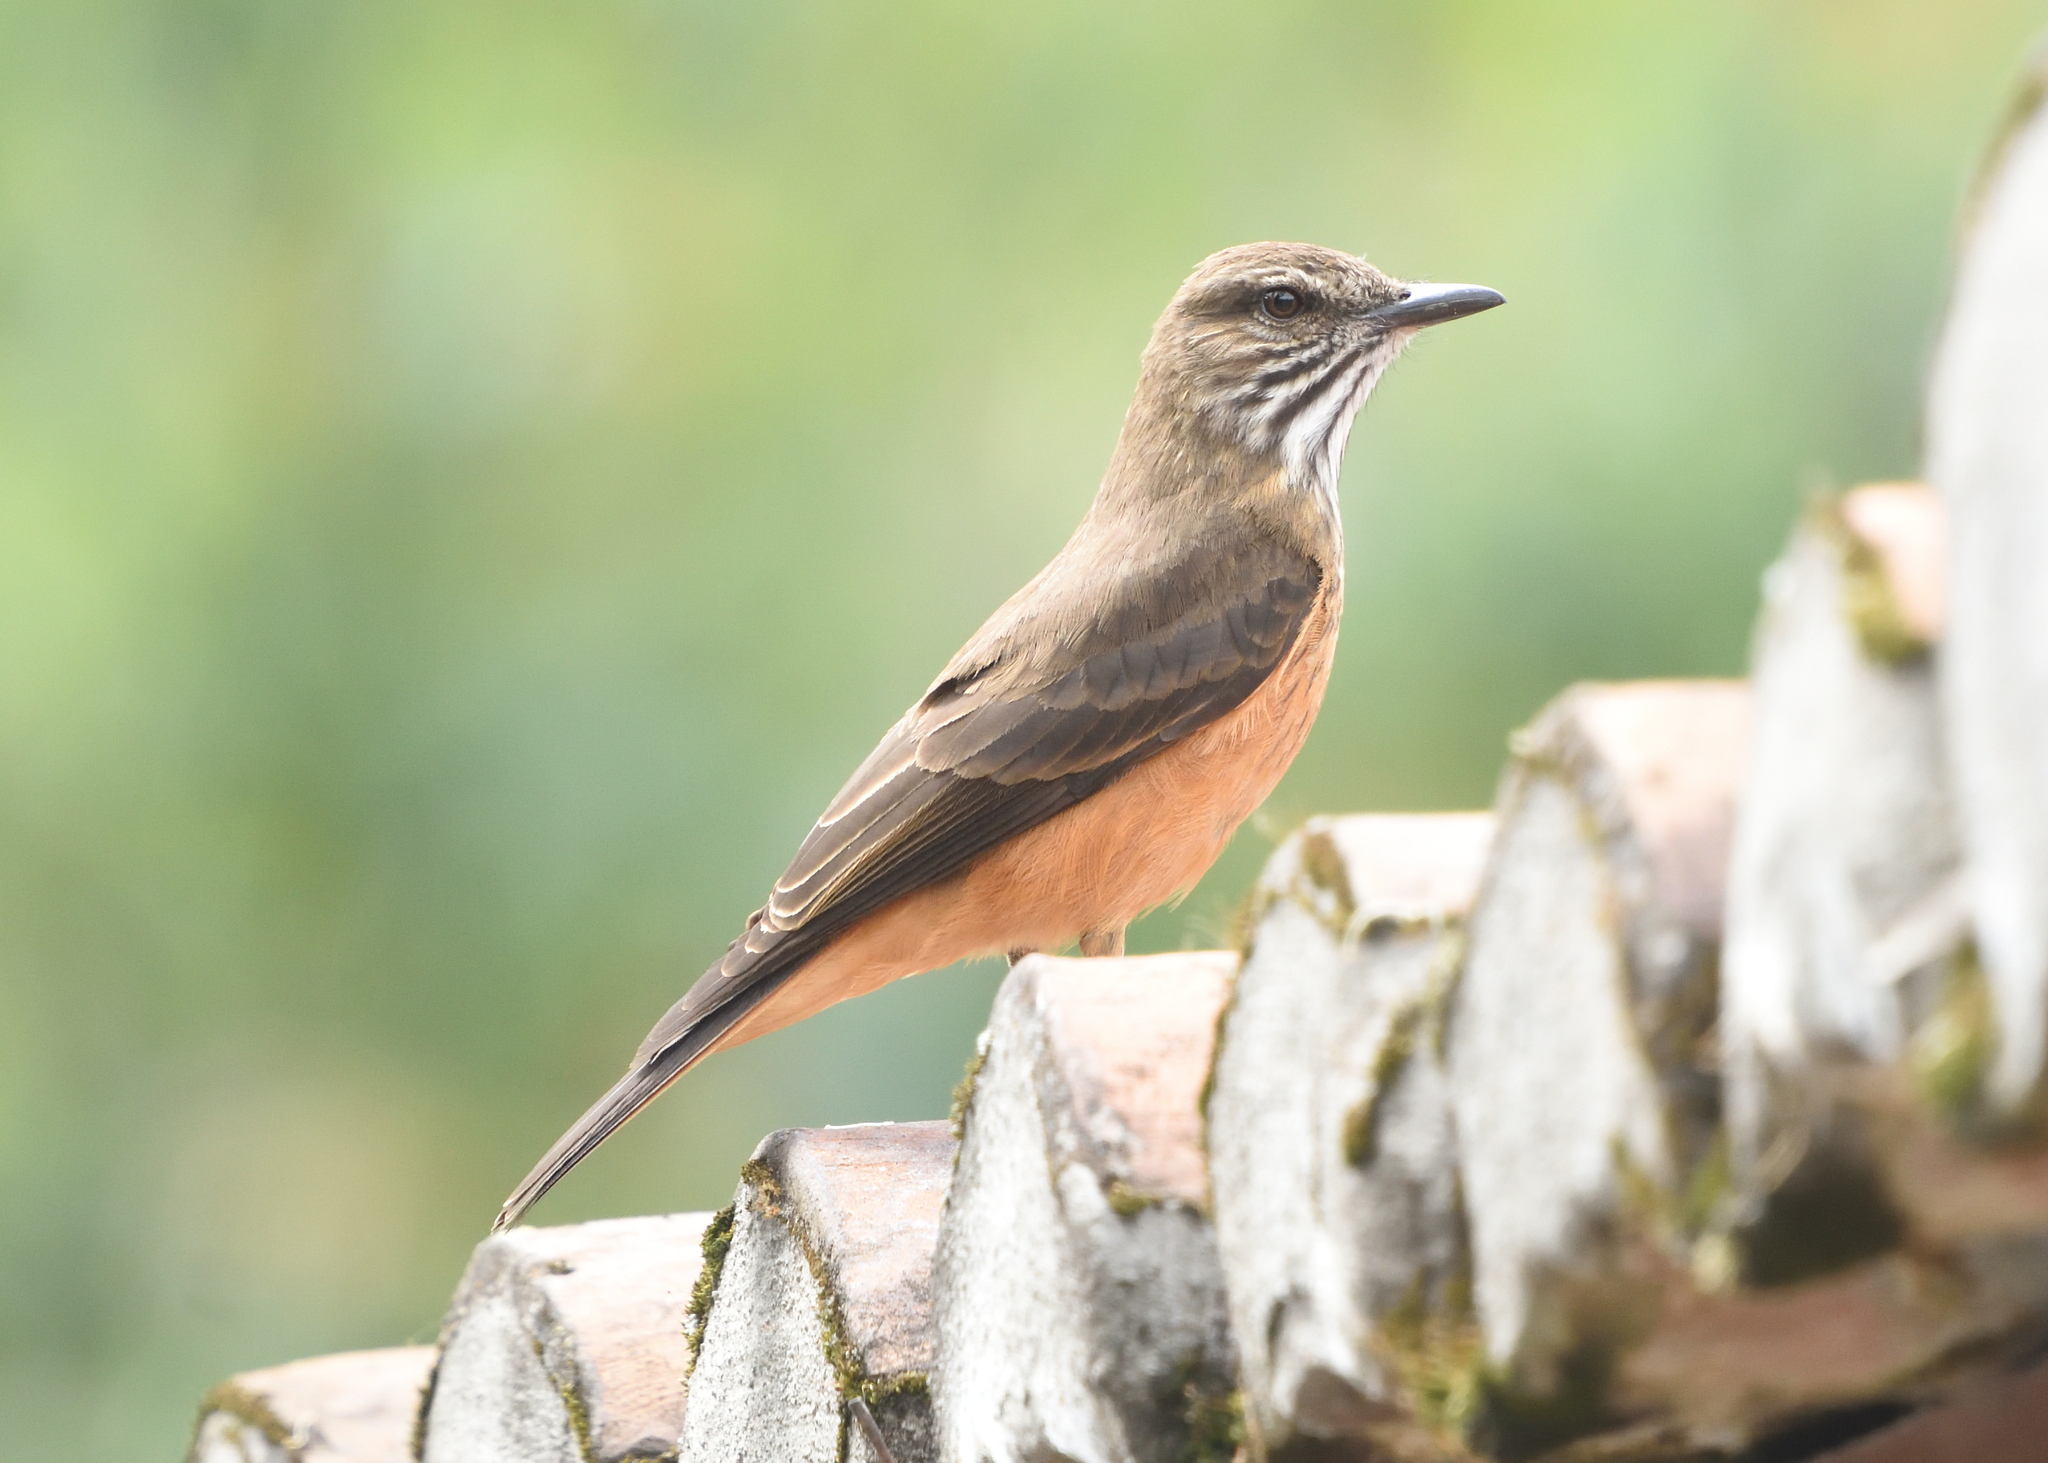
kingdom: Animalia
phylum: Chordata
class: Aves
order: Passeriformes
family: Tyrannidae
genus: Myiotheretes
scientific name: Myiotheretes striaticollis
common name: Streak-throated bush tyrant
